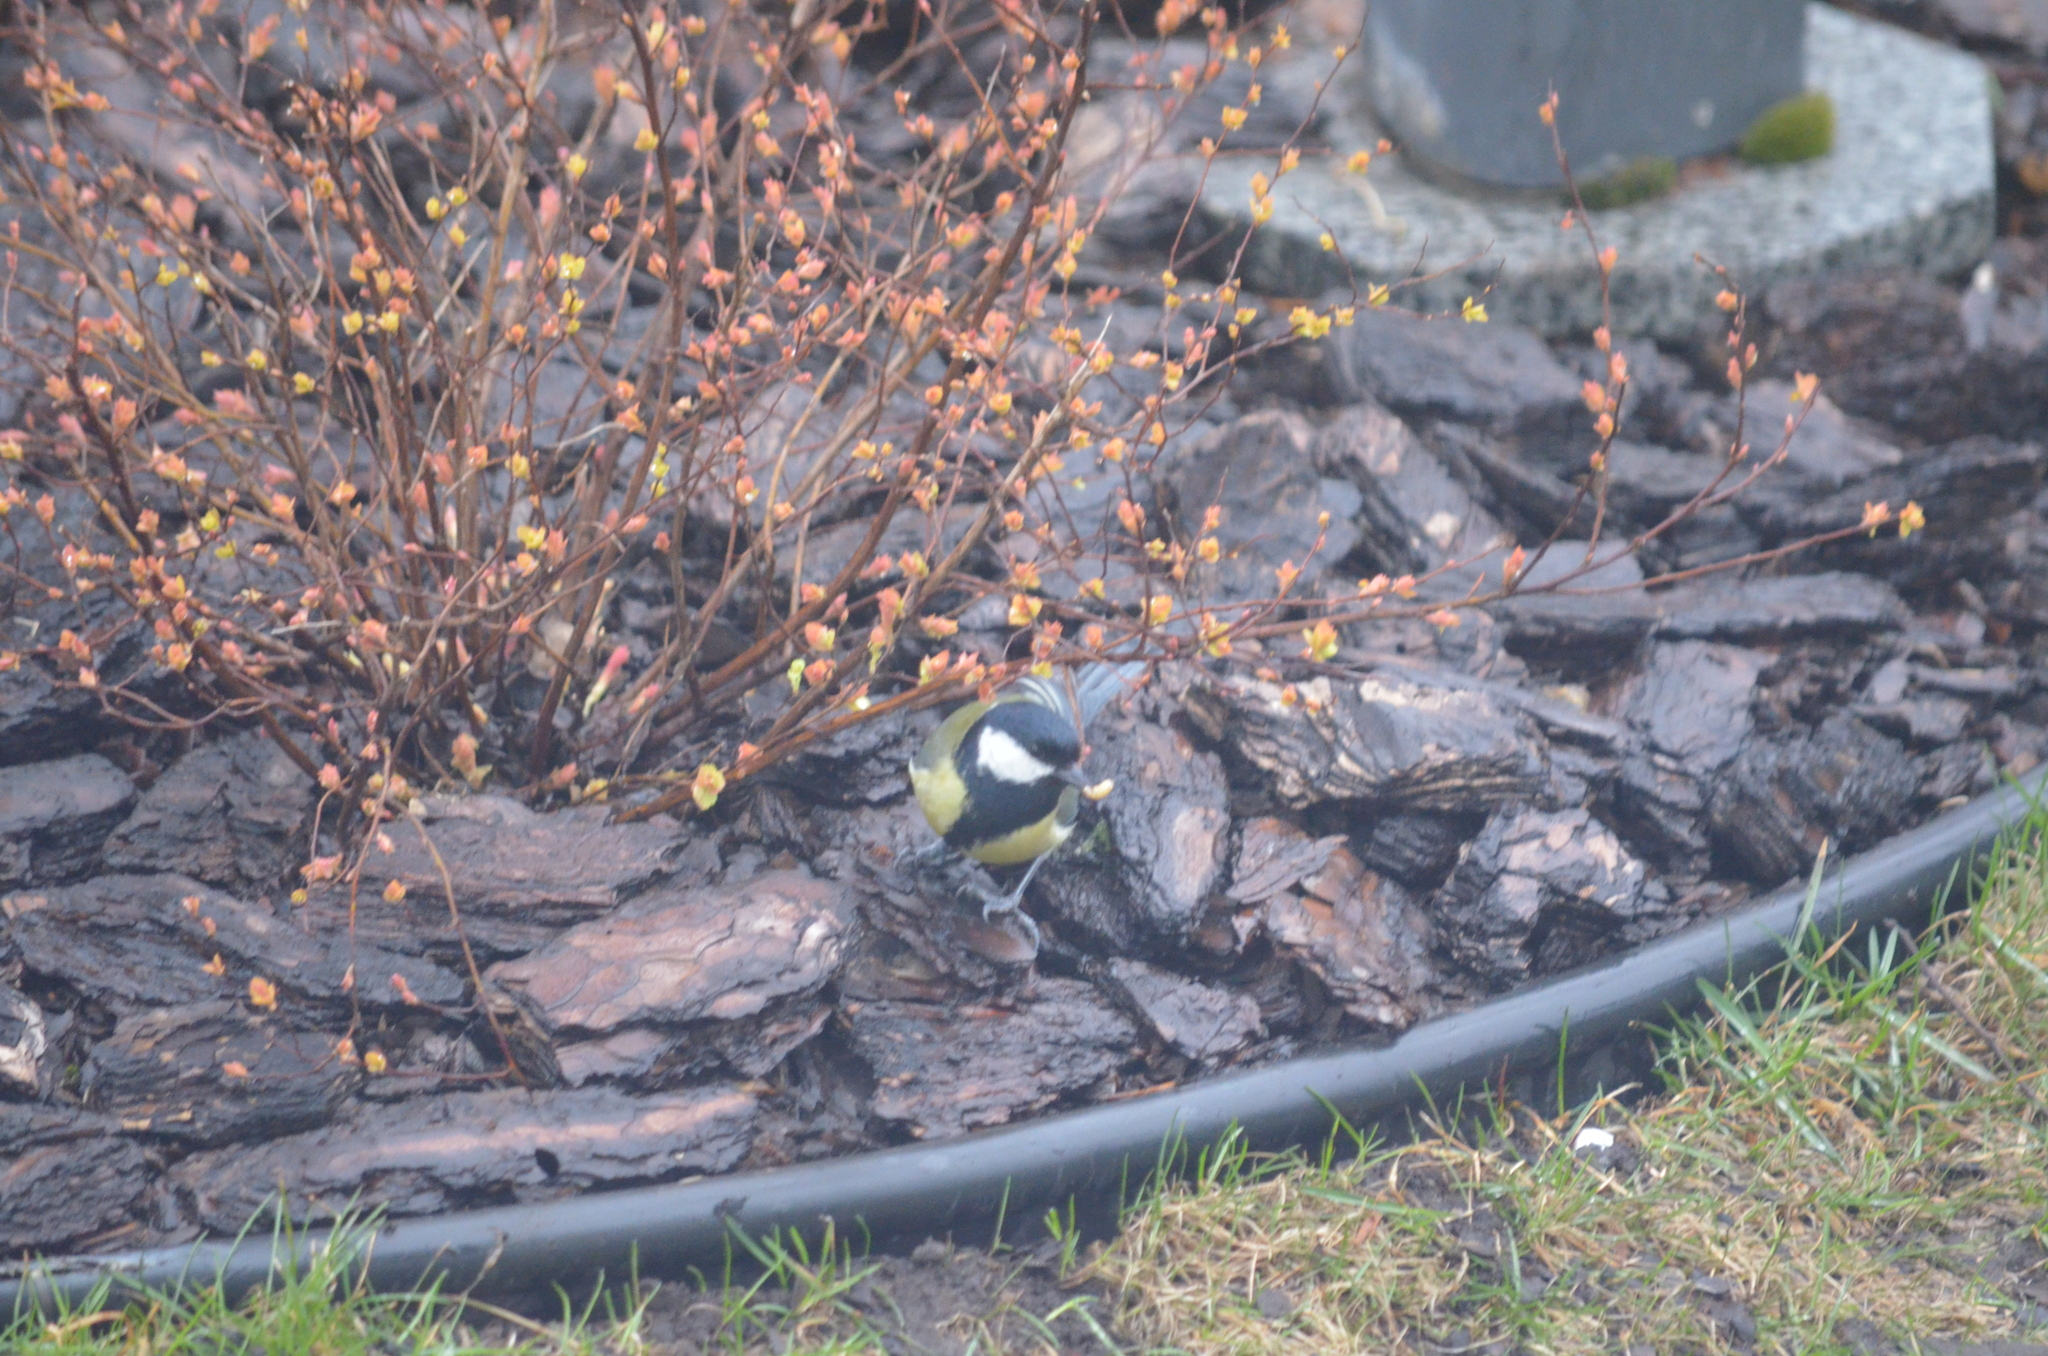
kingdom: Animalia
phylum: Chordata
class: Aves
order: Passeriformes
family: Paridae
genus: Parus
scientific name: Parus major
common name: Great tit
